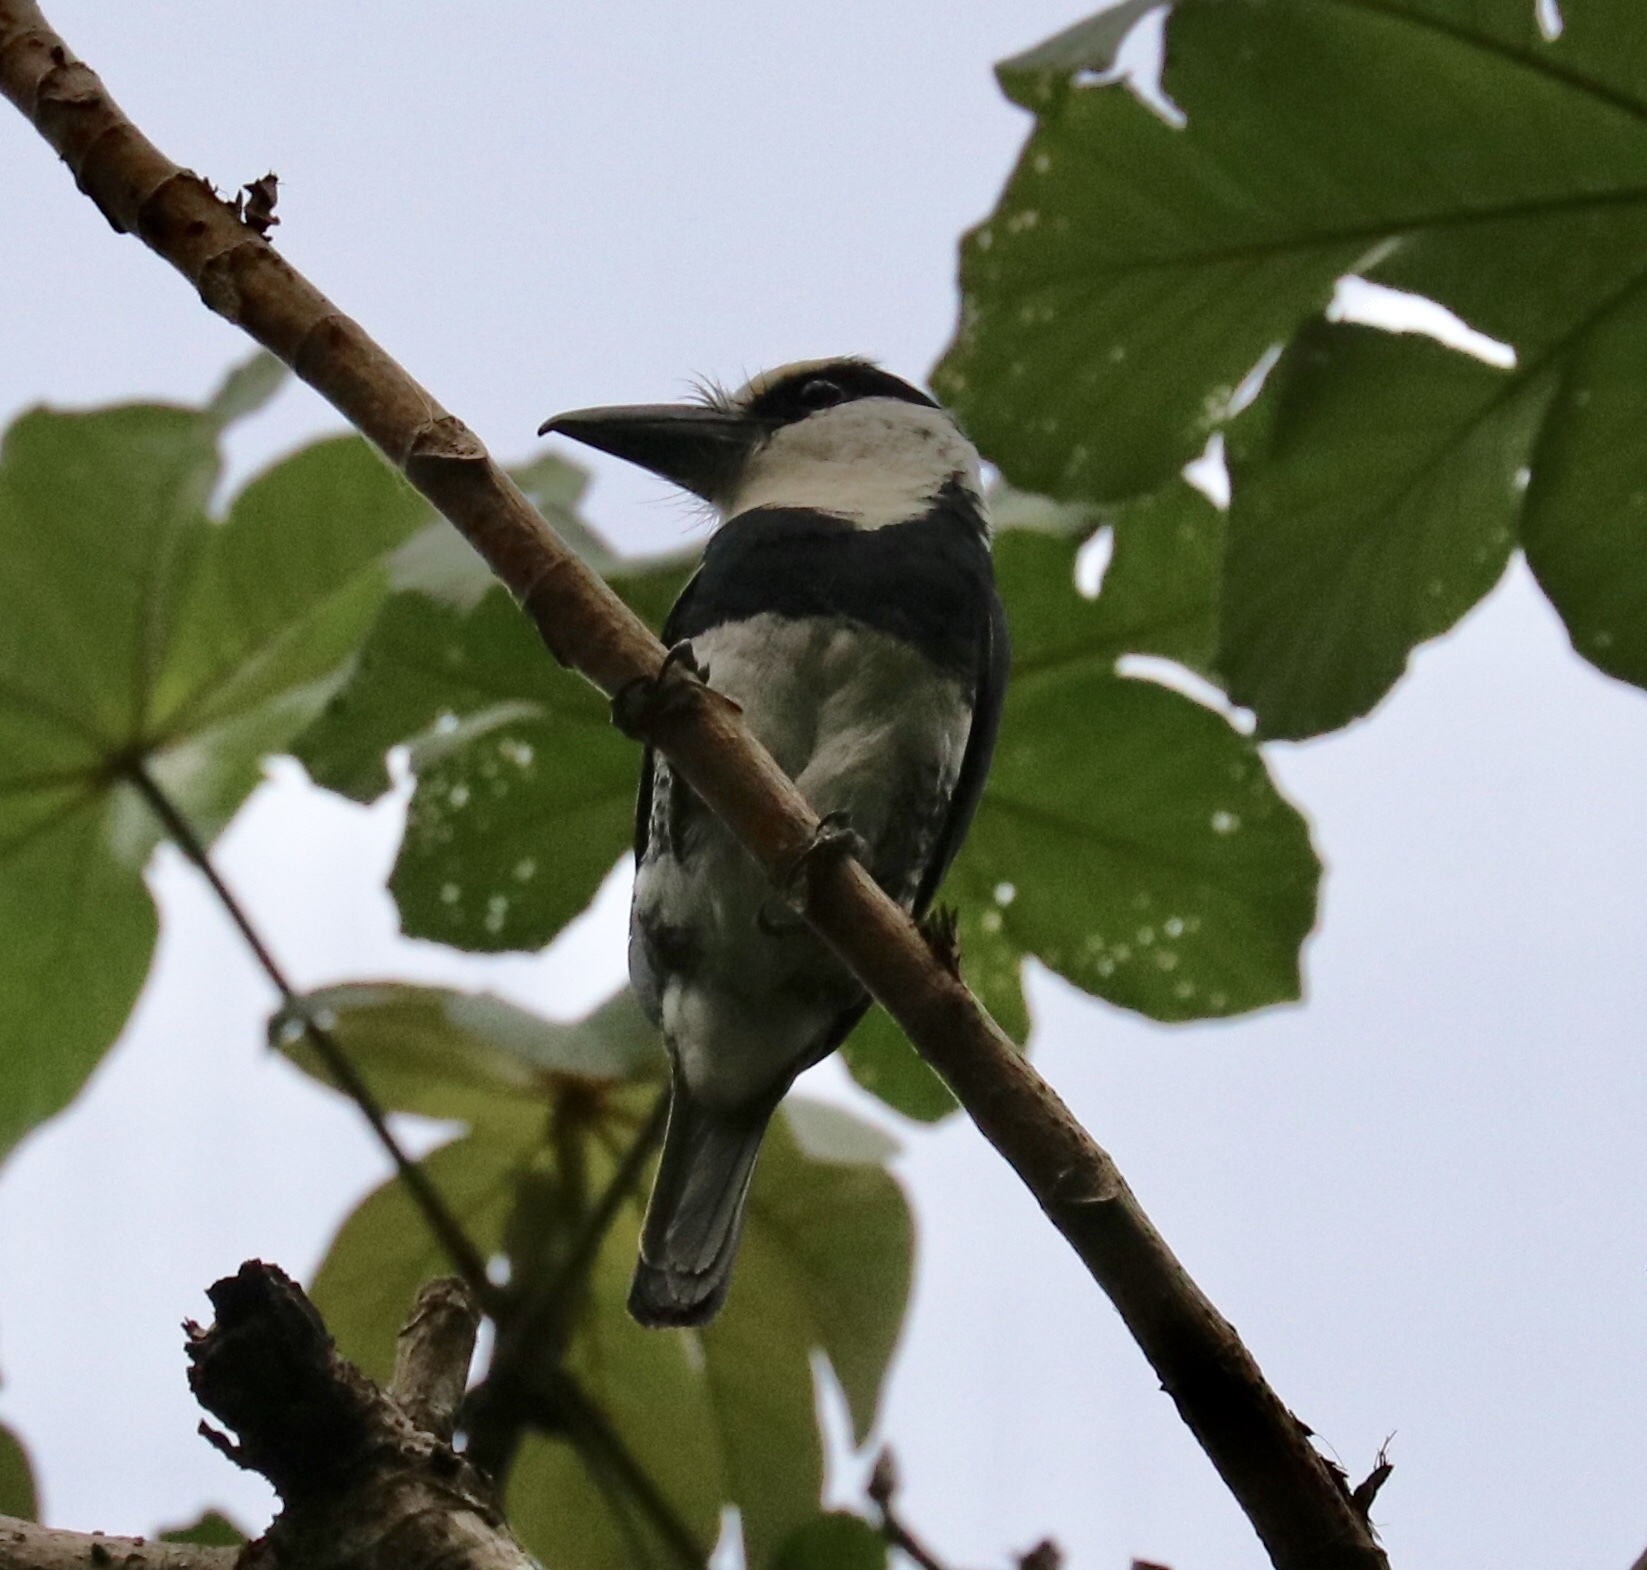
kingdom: Animalia
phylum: Chordata
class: Aves
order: Piciformes
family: Bucconidae
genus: Notharchus
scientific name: Notharchus hyperrhynchus
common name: White-necked puffbird
